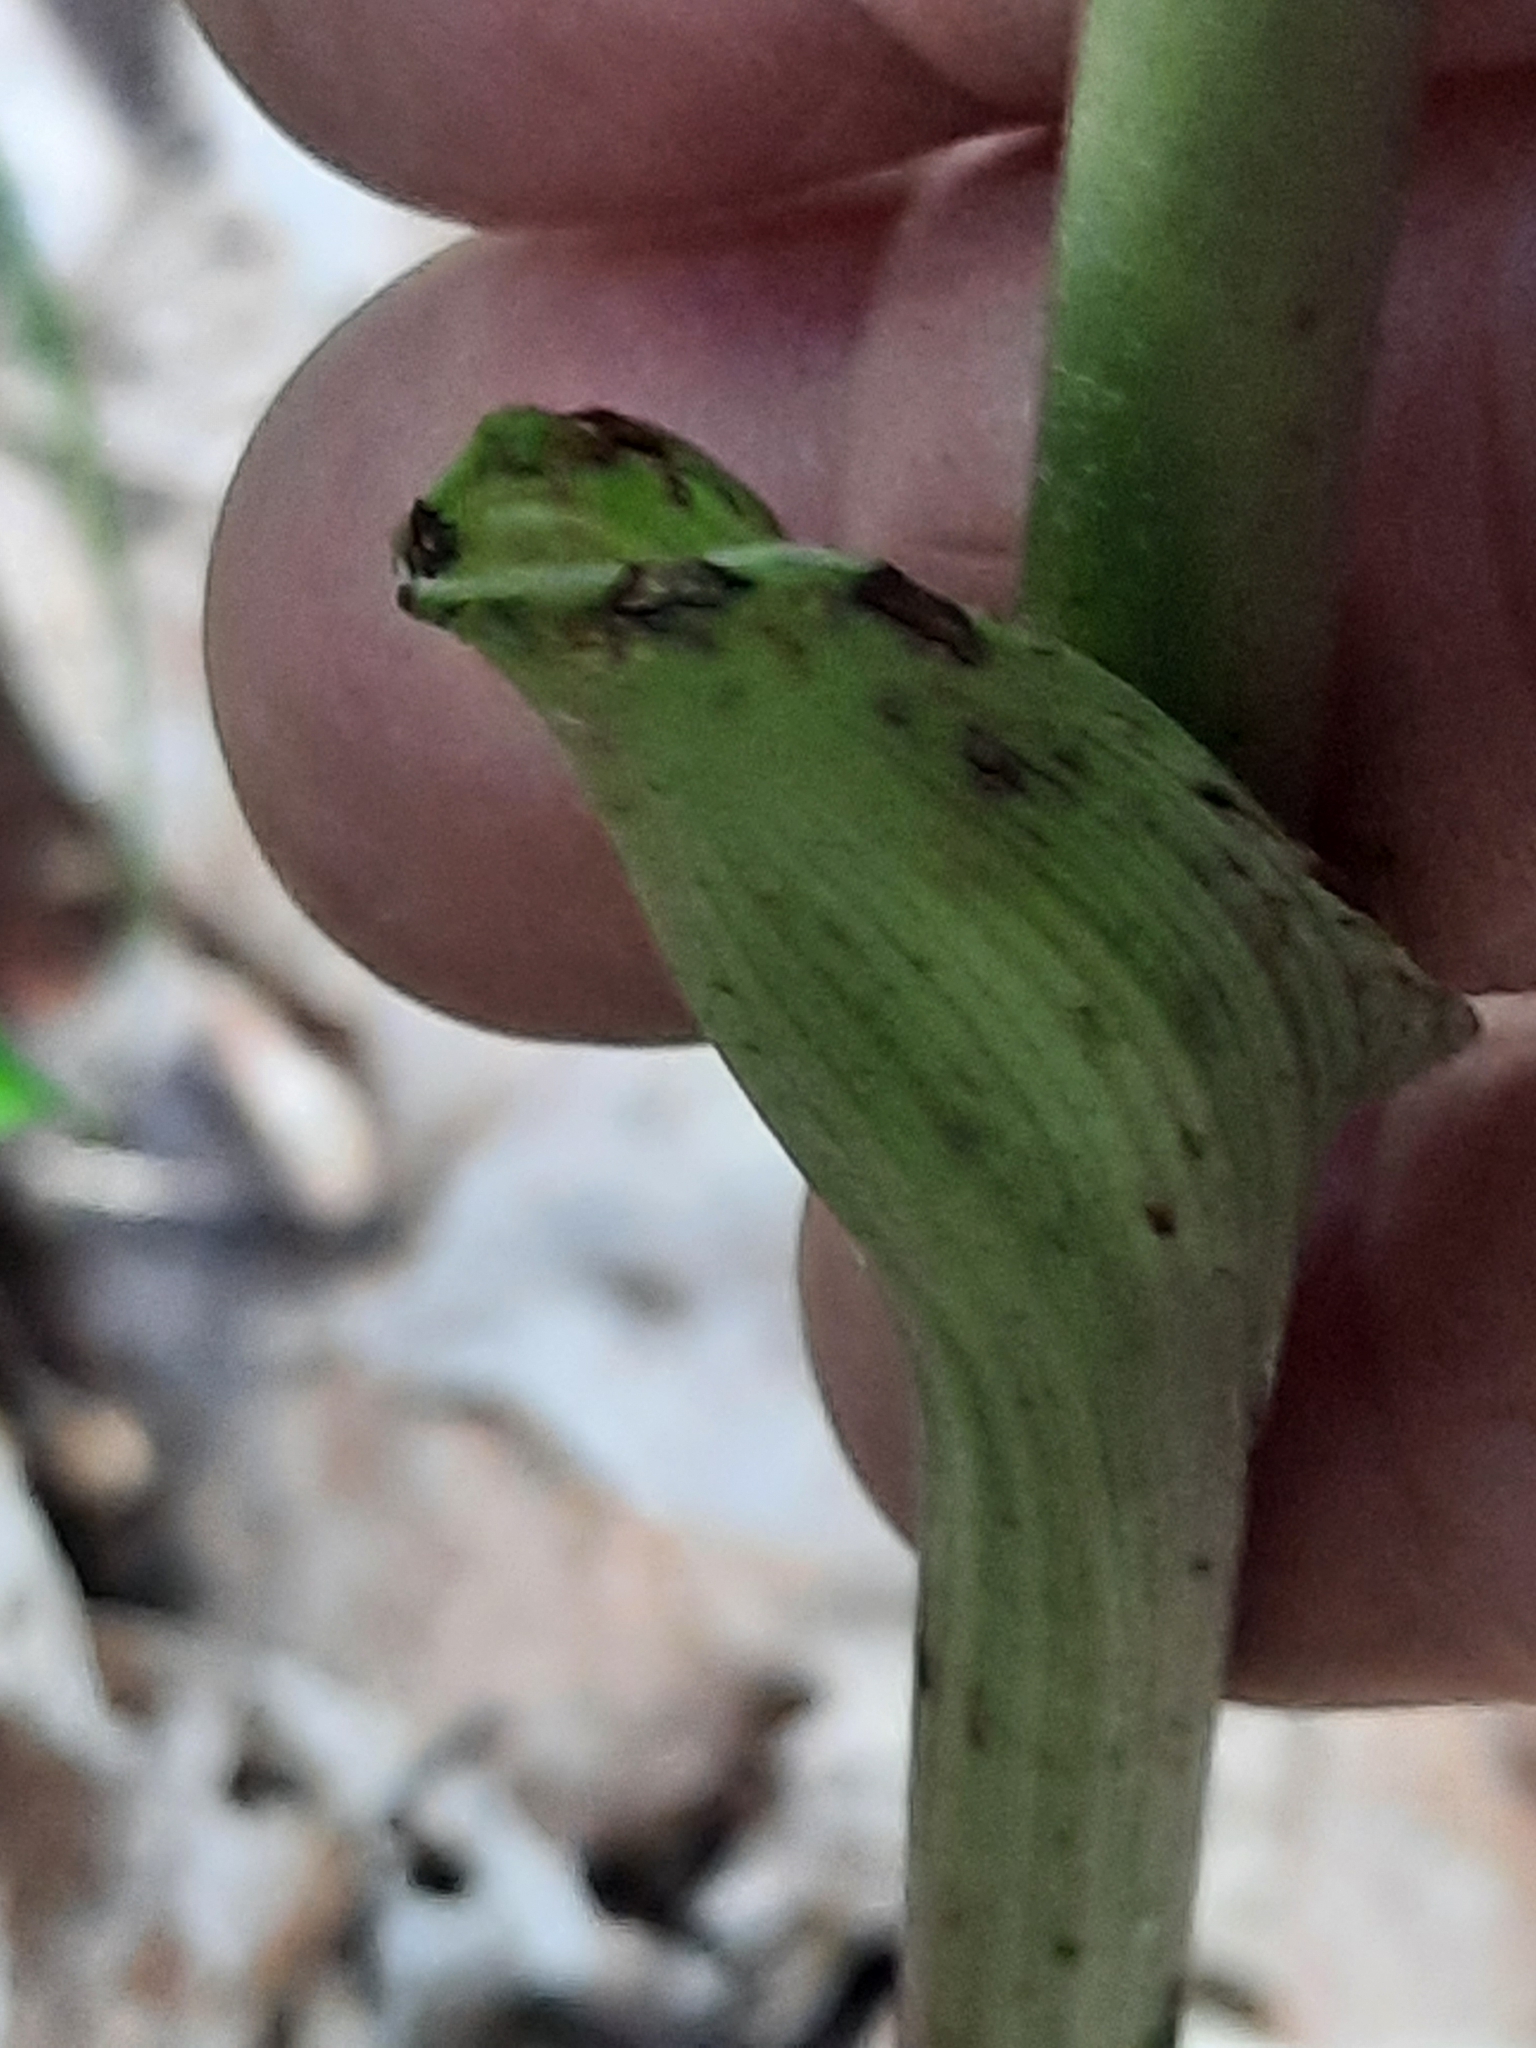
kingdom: Plantae
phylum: Tracheophyta
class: Liliopsida
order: Asparagales
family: Orchidaceae
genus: Epipactis
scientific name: Epipactis helleborine
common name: Broad-leaved helleborine
